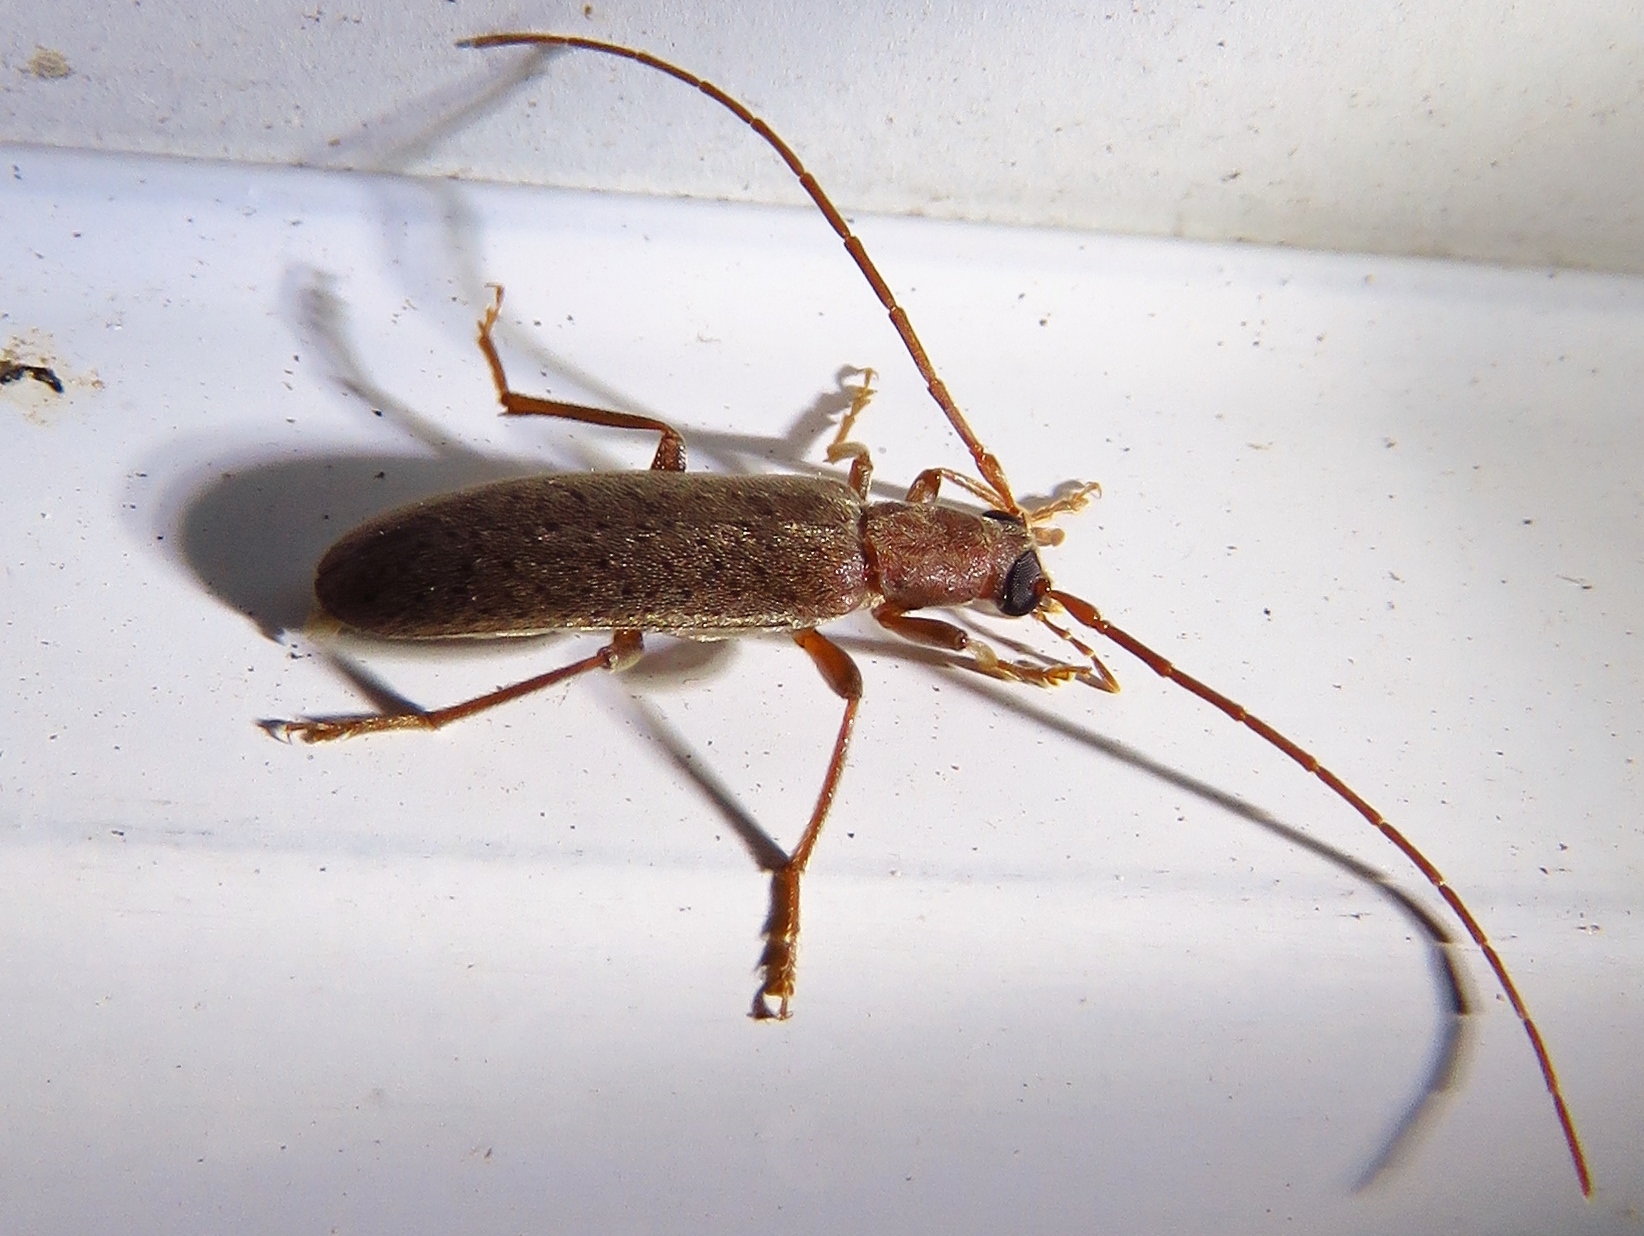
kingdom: Animalia
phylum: Arthropoda
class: Insecta
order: Coleoptera
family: Oedemeridae
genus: Sparedrus
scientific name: Sparedrus aspersus
